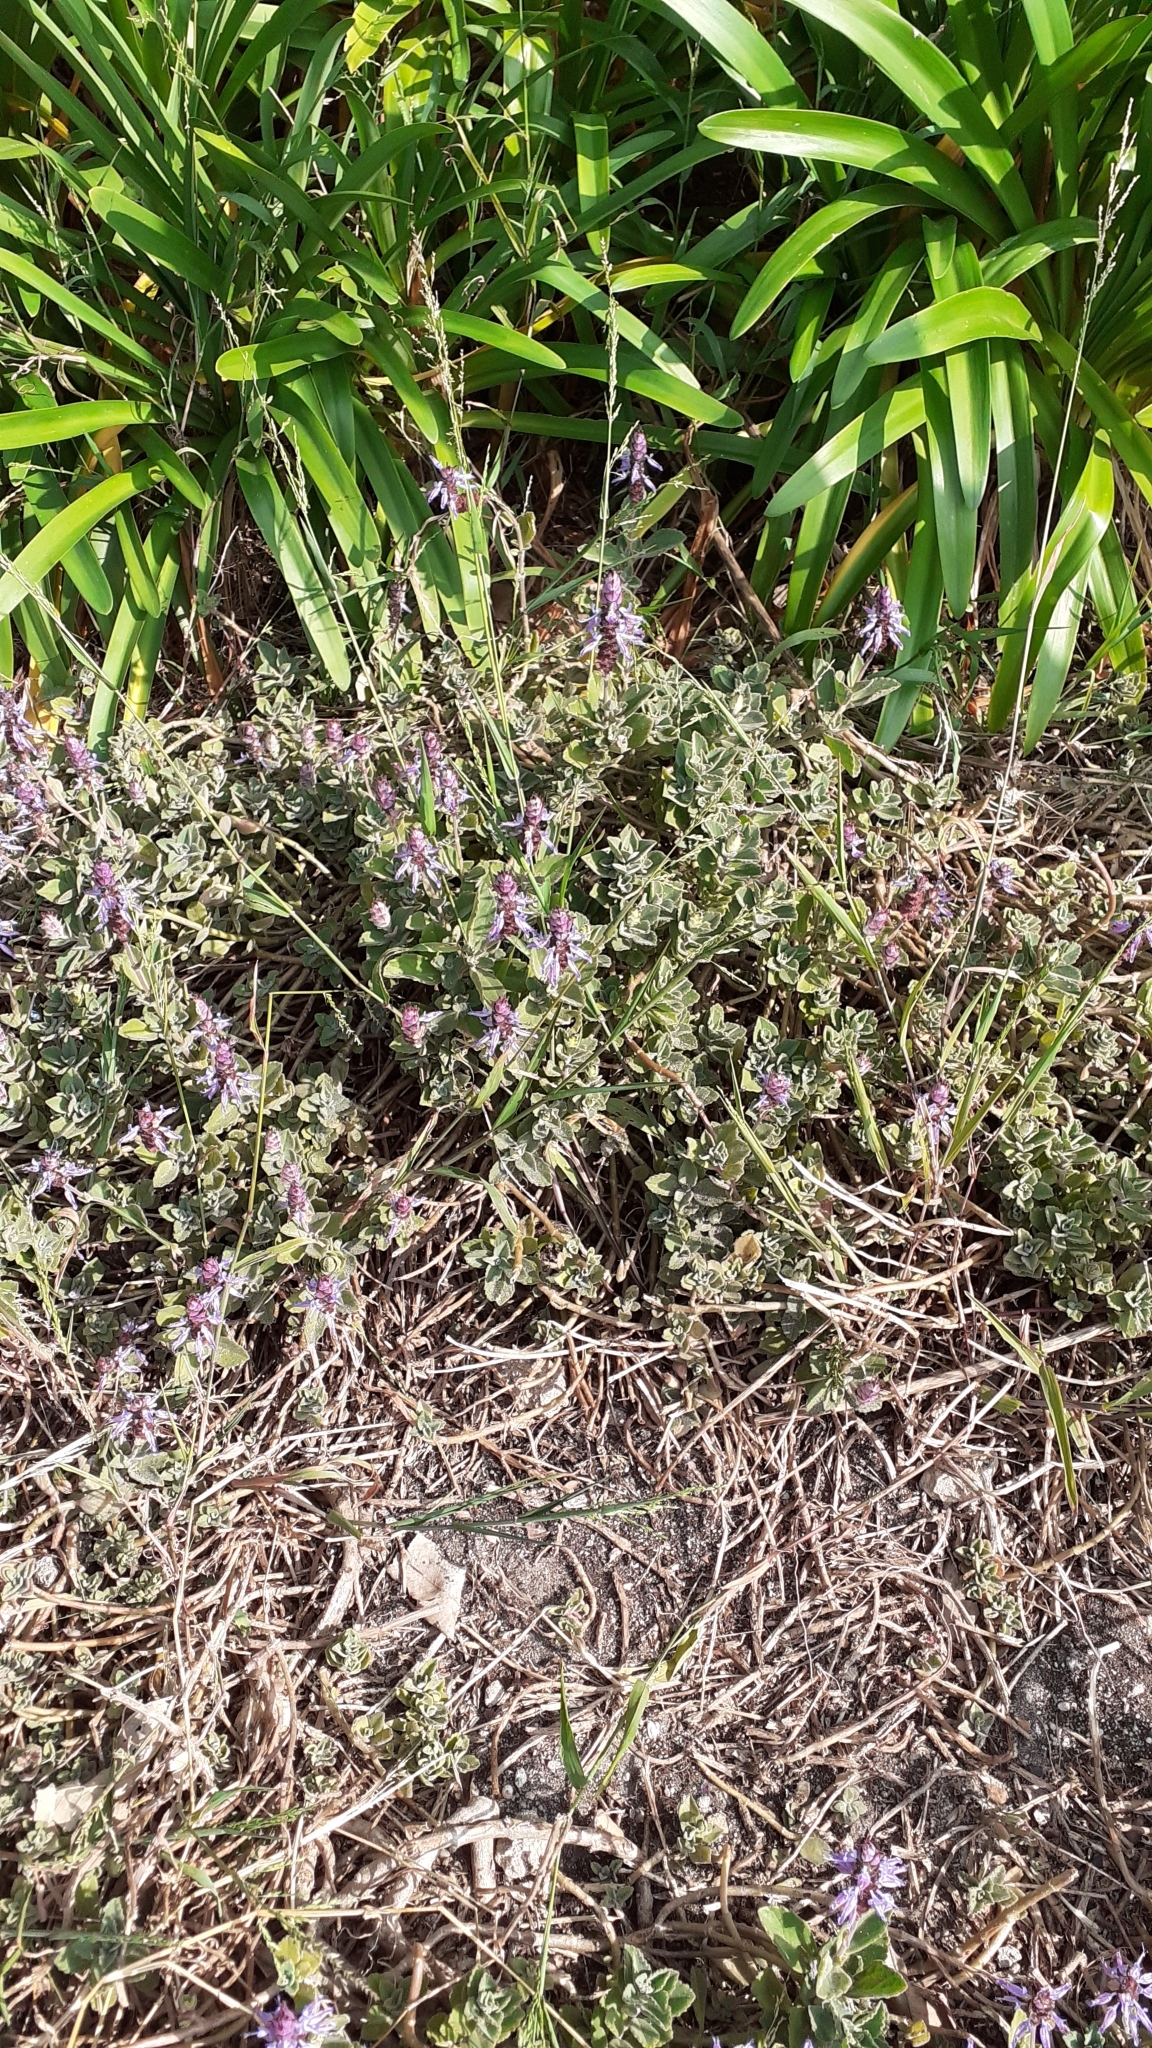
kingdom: Plantae
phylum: Tracheophyta
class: Liliopsida
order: Poales
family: Poaceae
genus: Ehrharta
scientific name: Ehrharta erecta
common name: Panic veldtgrass
